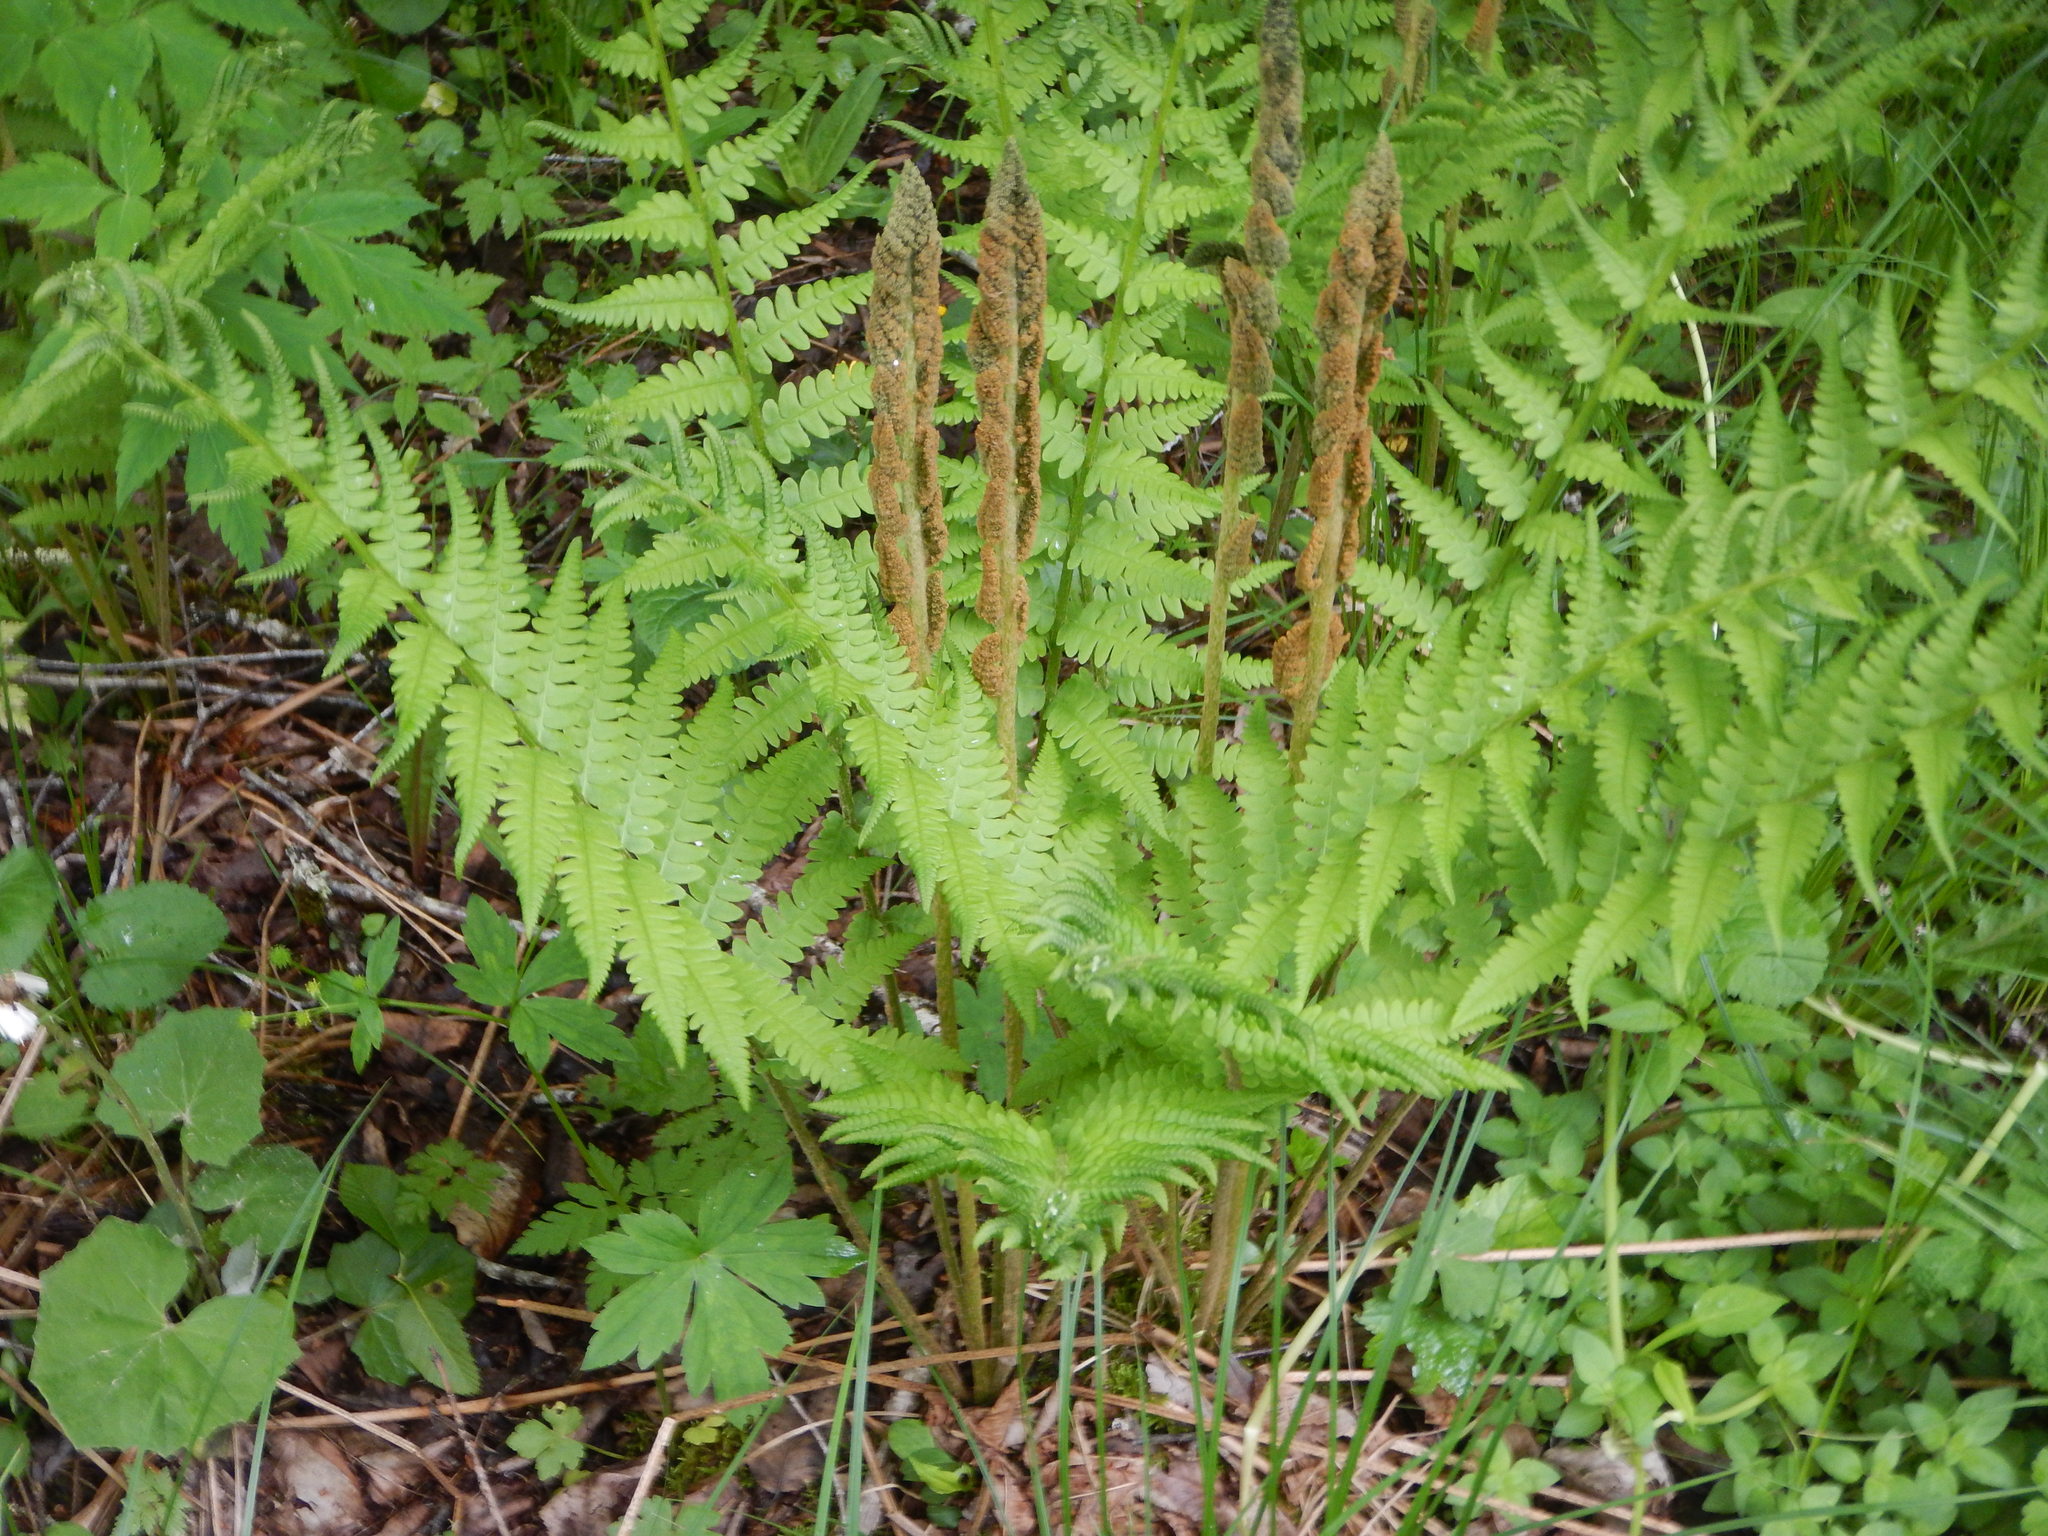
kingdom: Plantae
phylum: Tracheophyta
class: Polypodiopsida
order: Osmundales
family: Osmundaceae
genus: Osmundastrum
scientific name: Osmundastrum cinnamomeum
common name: Cinnamon fern
